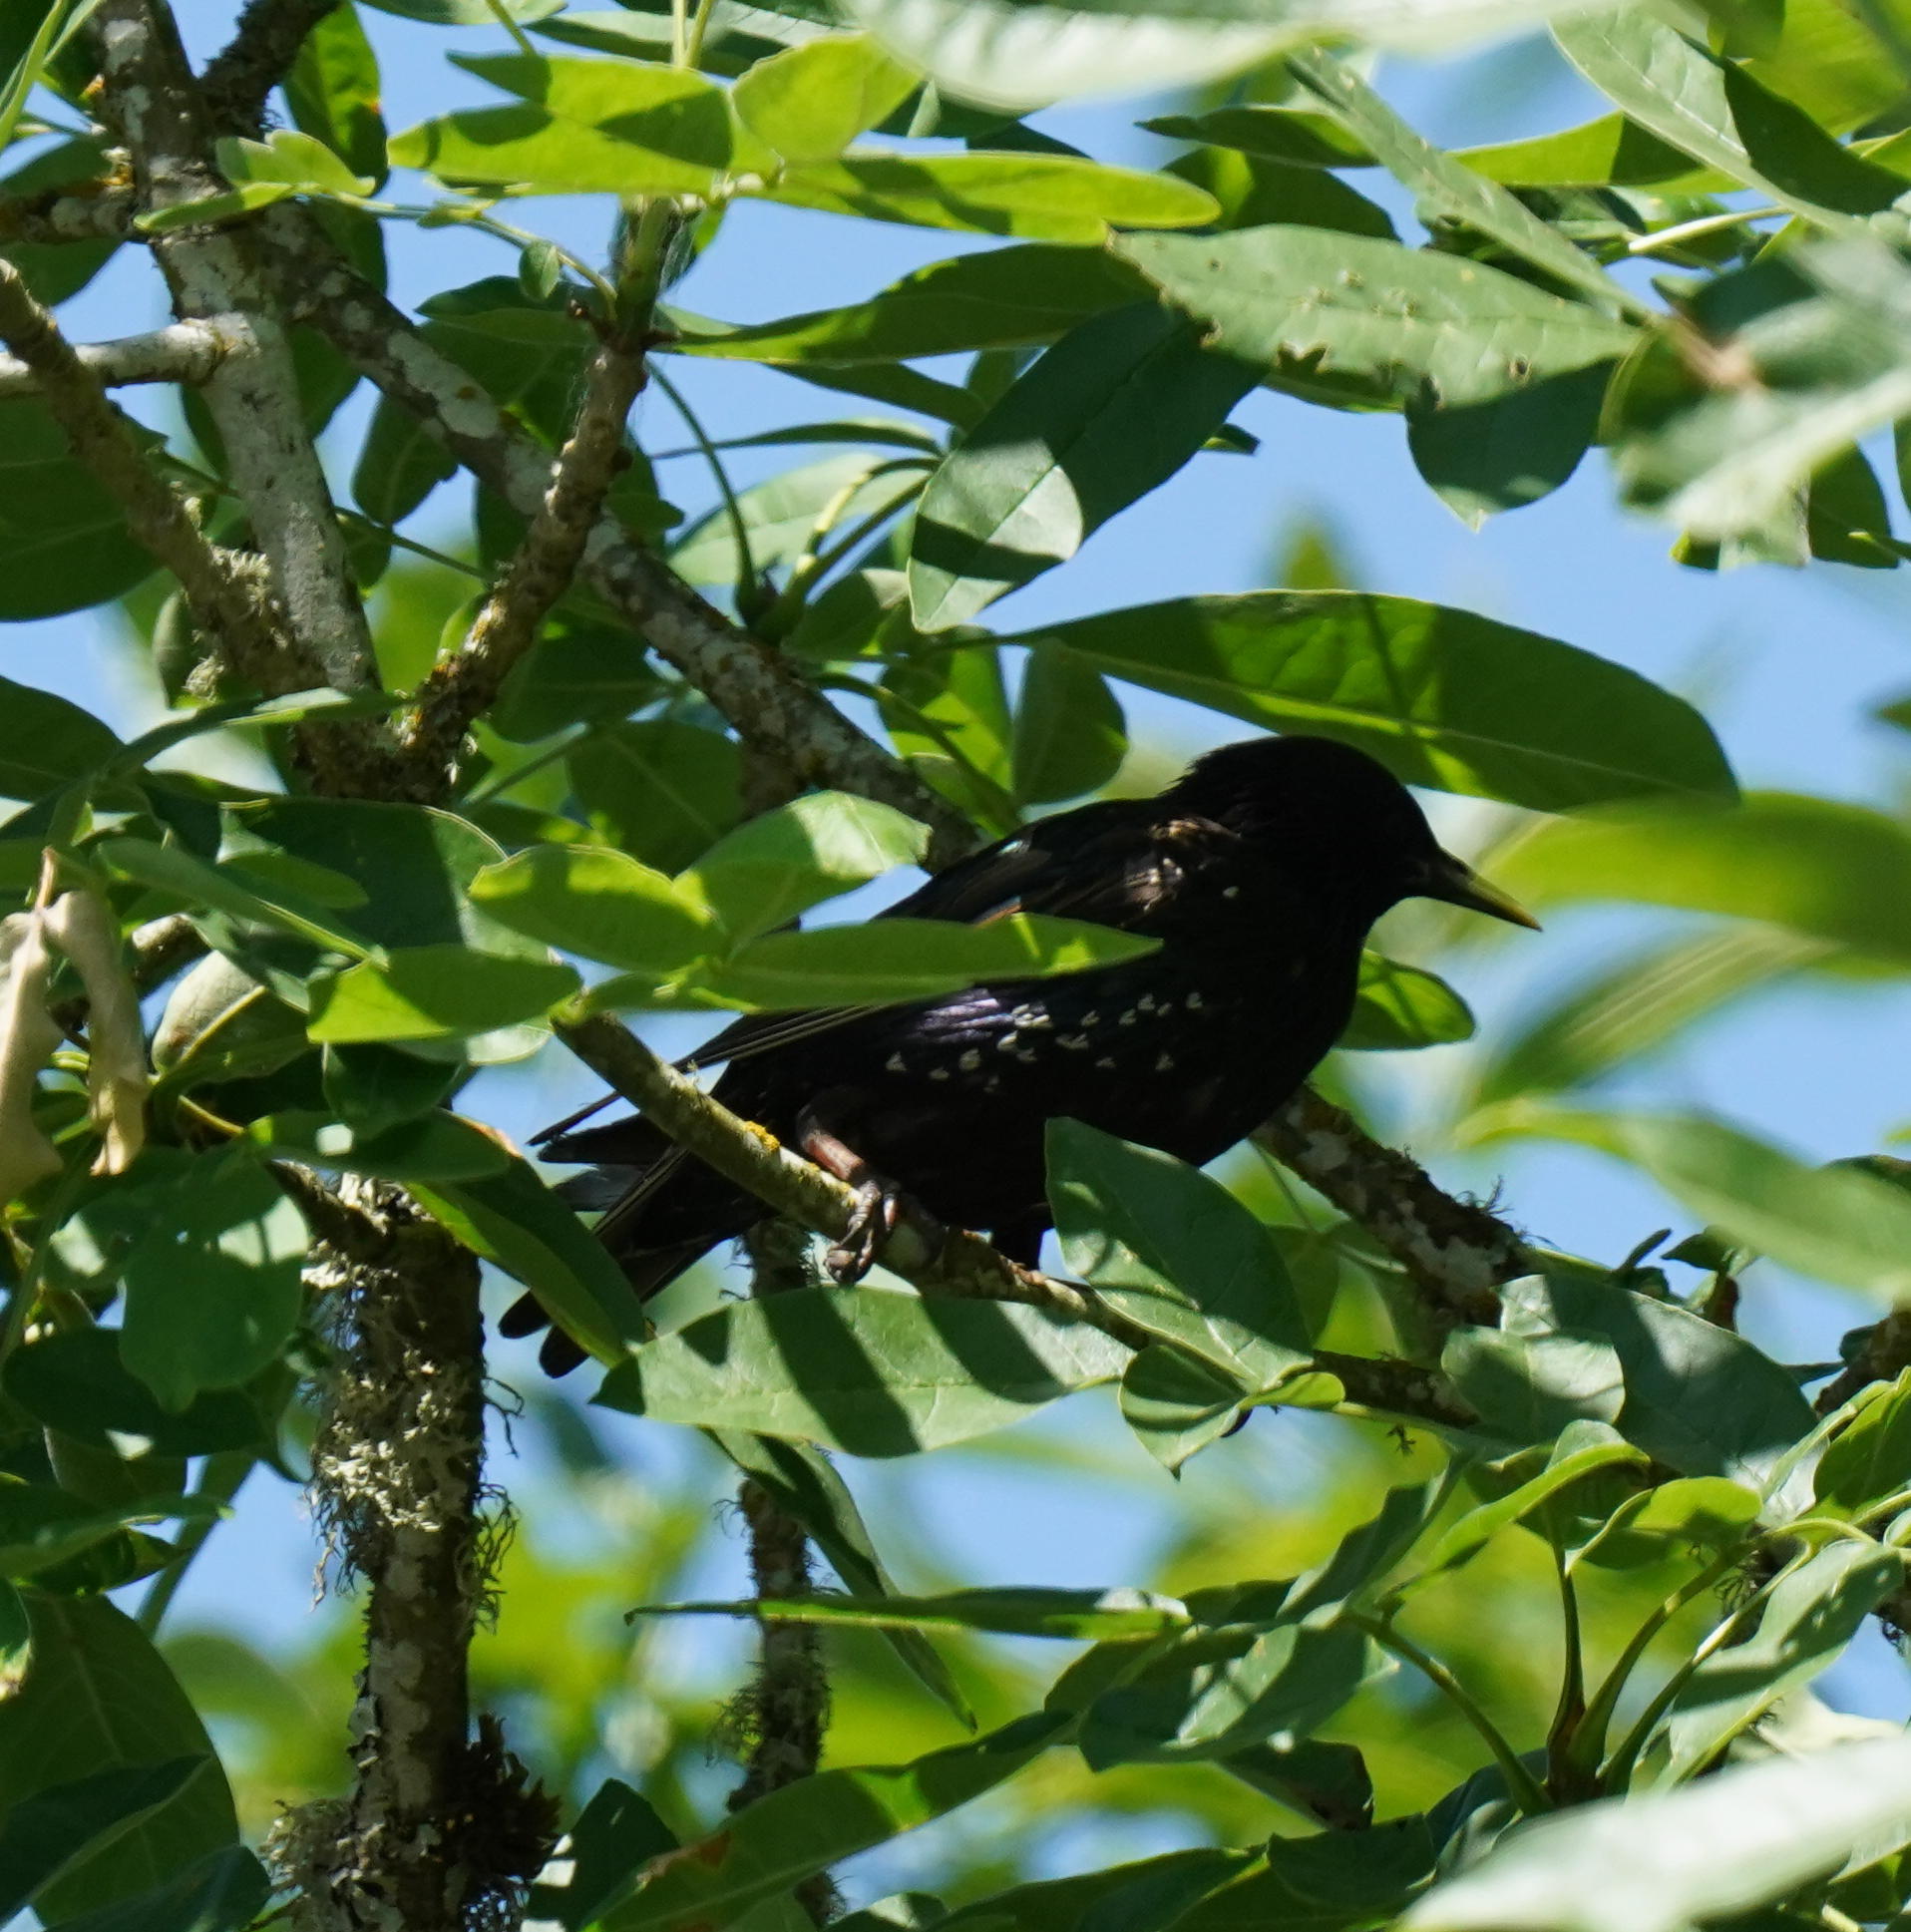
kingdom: Animalia
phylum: Chordata
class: Aves
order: Passeriformes
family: Sturnidae
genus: Sturnus
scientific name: Sturnus vulgaris
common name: Common starling
